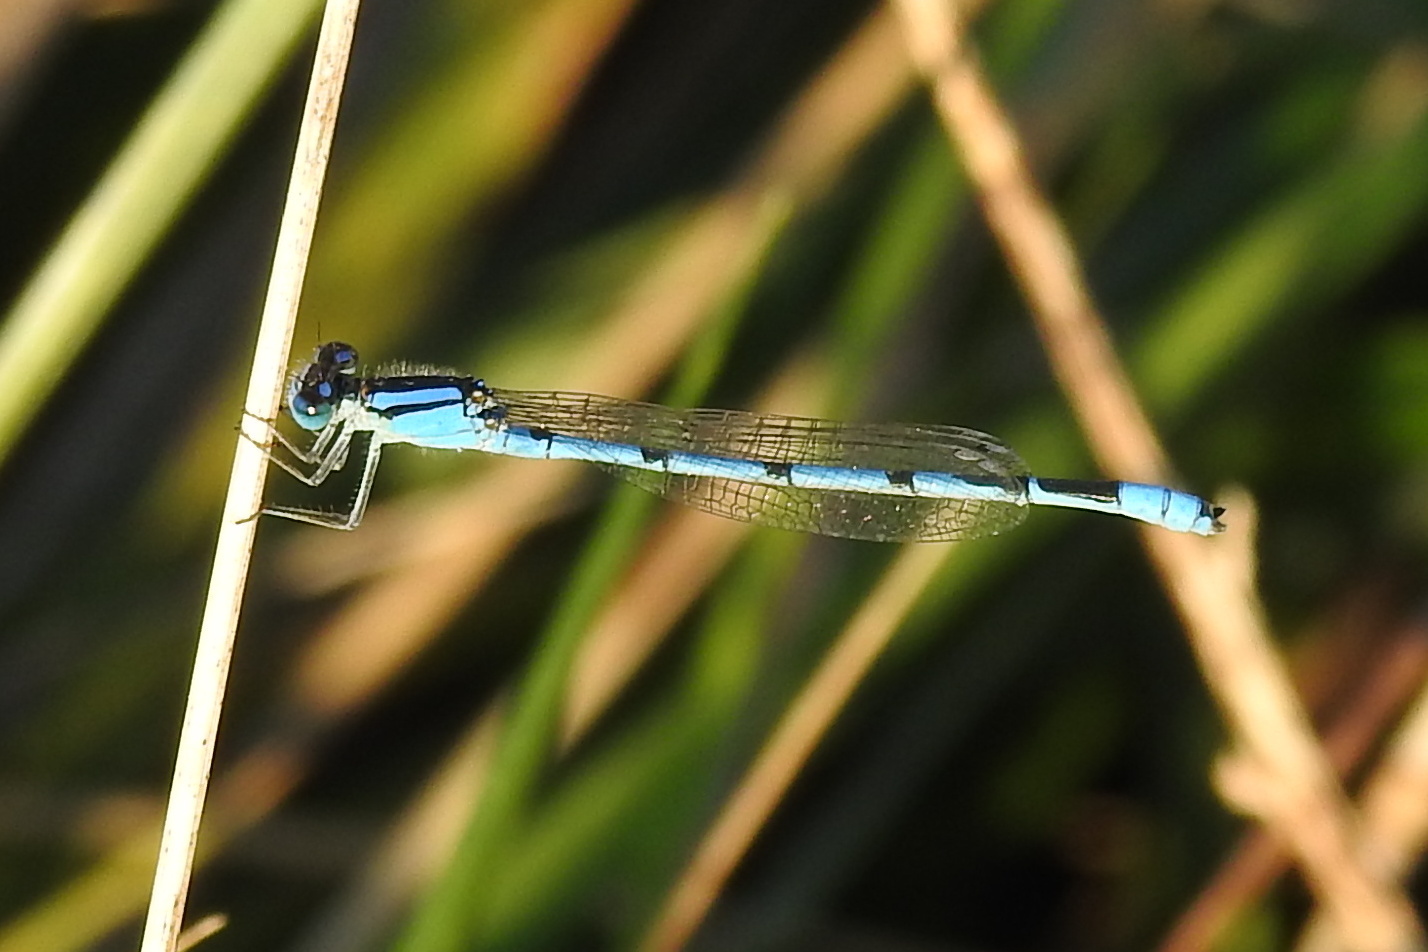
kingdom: Animalia
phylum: Arthropoda
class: Insecta
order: Odonata
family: Coenagrionidae
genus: Enallagma
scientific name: Enallagma civile
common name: Damselfly
